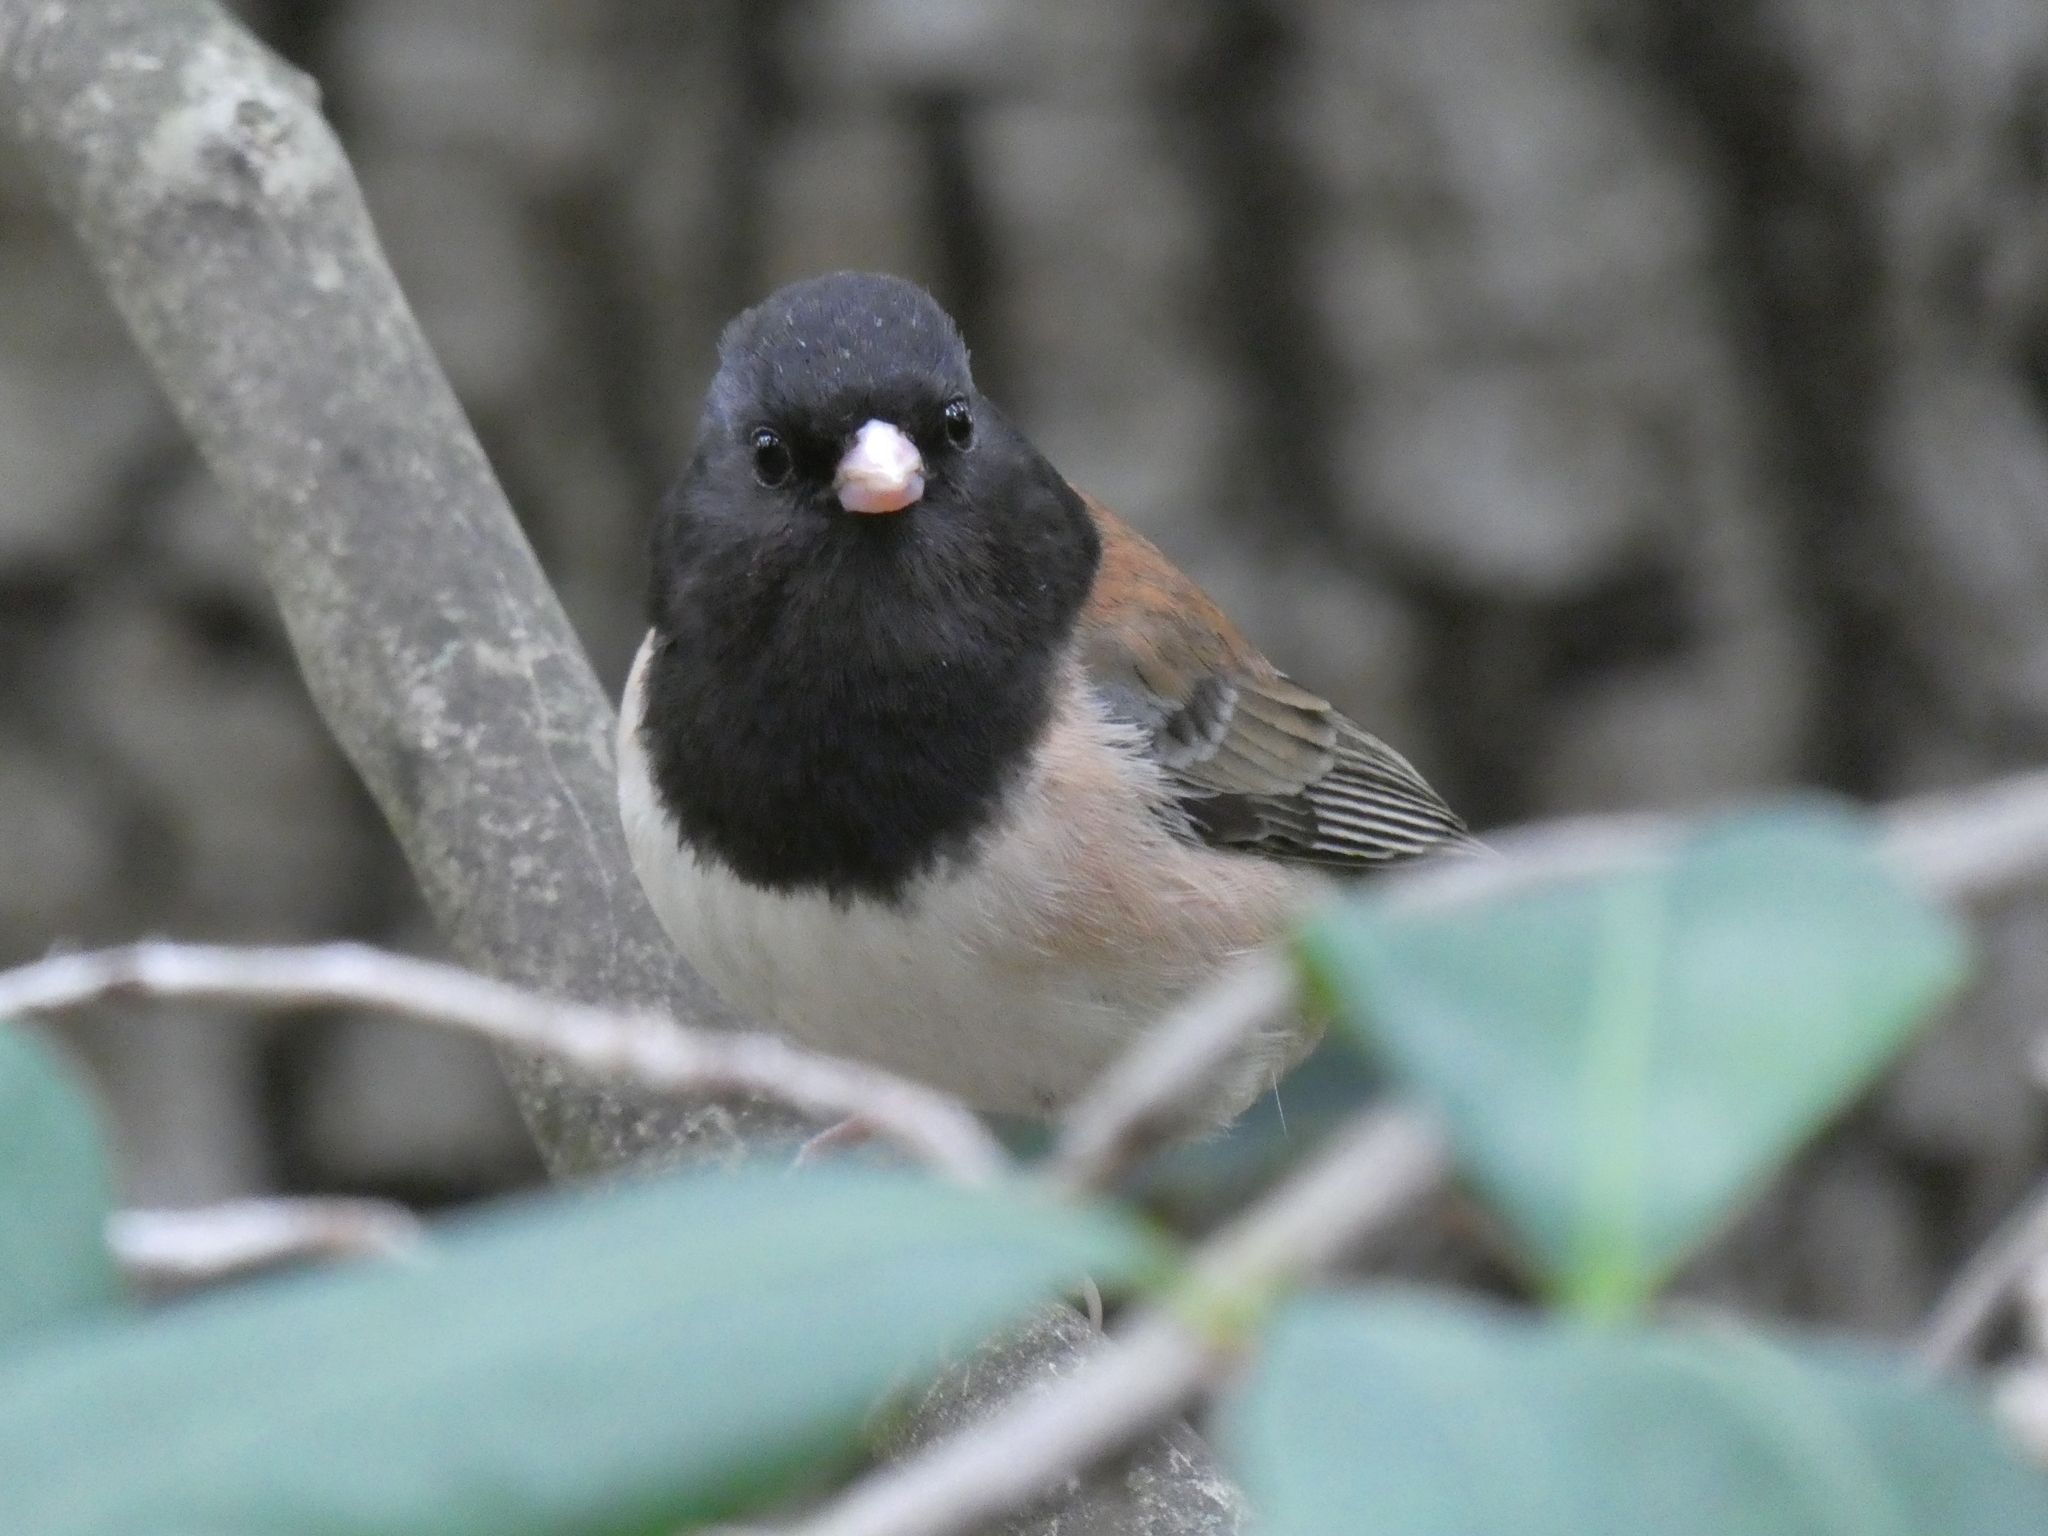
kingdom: Animalia
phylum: Chordata
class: Aves
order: Passeriformes
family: Passerellidae
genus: Junco
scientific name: Junco hyemalis
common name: Dark-eyed junco
